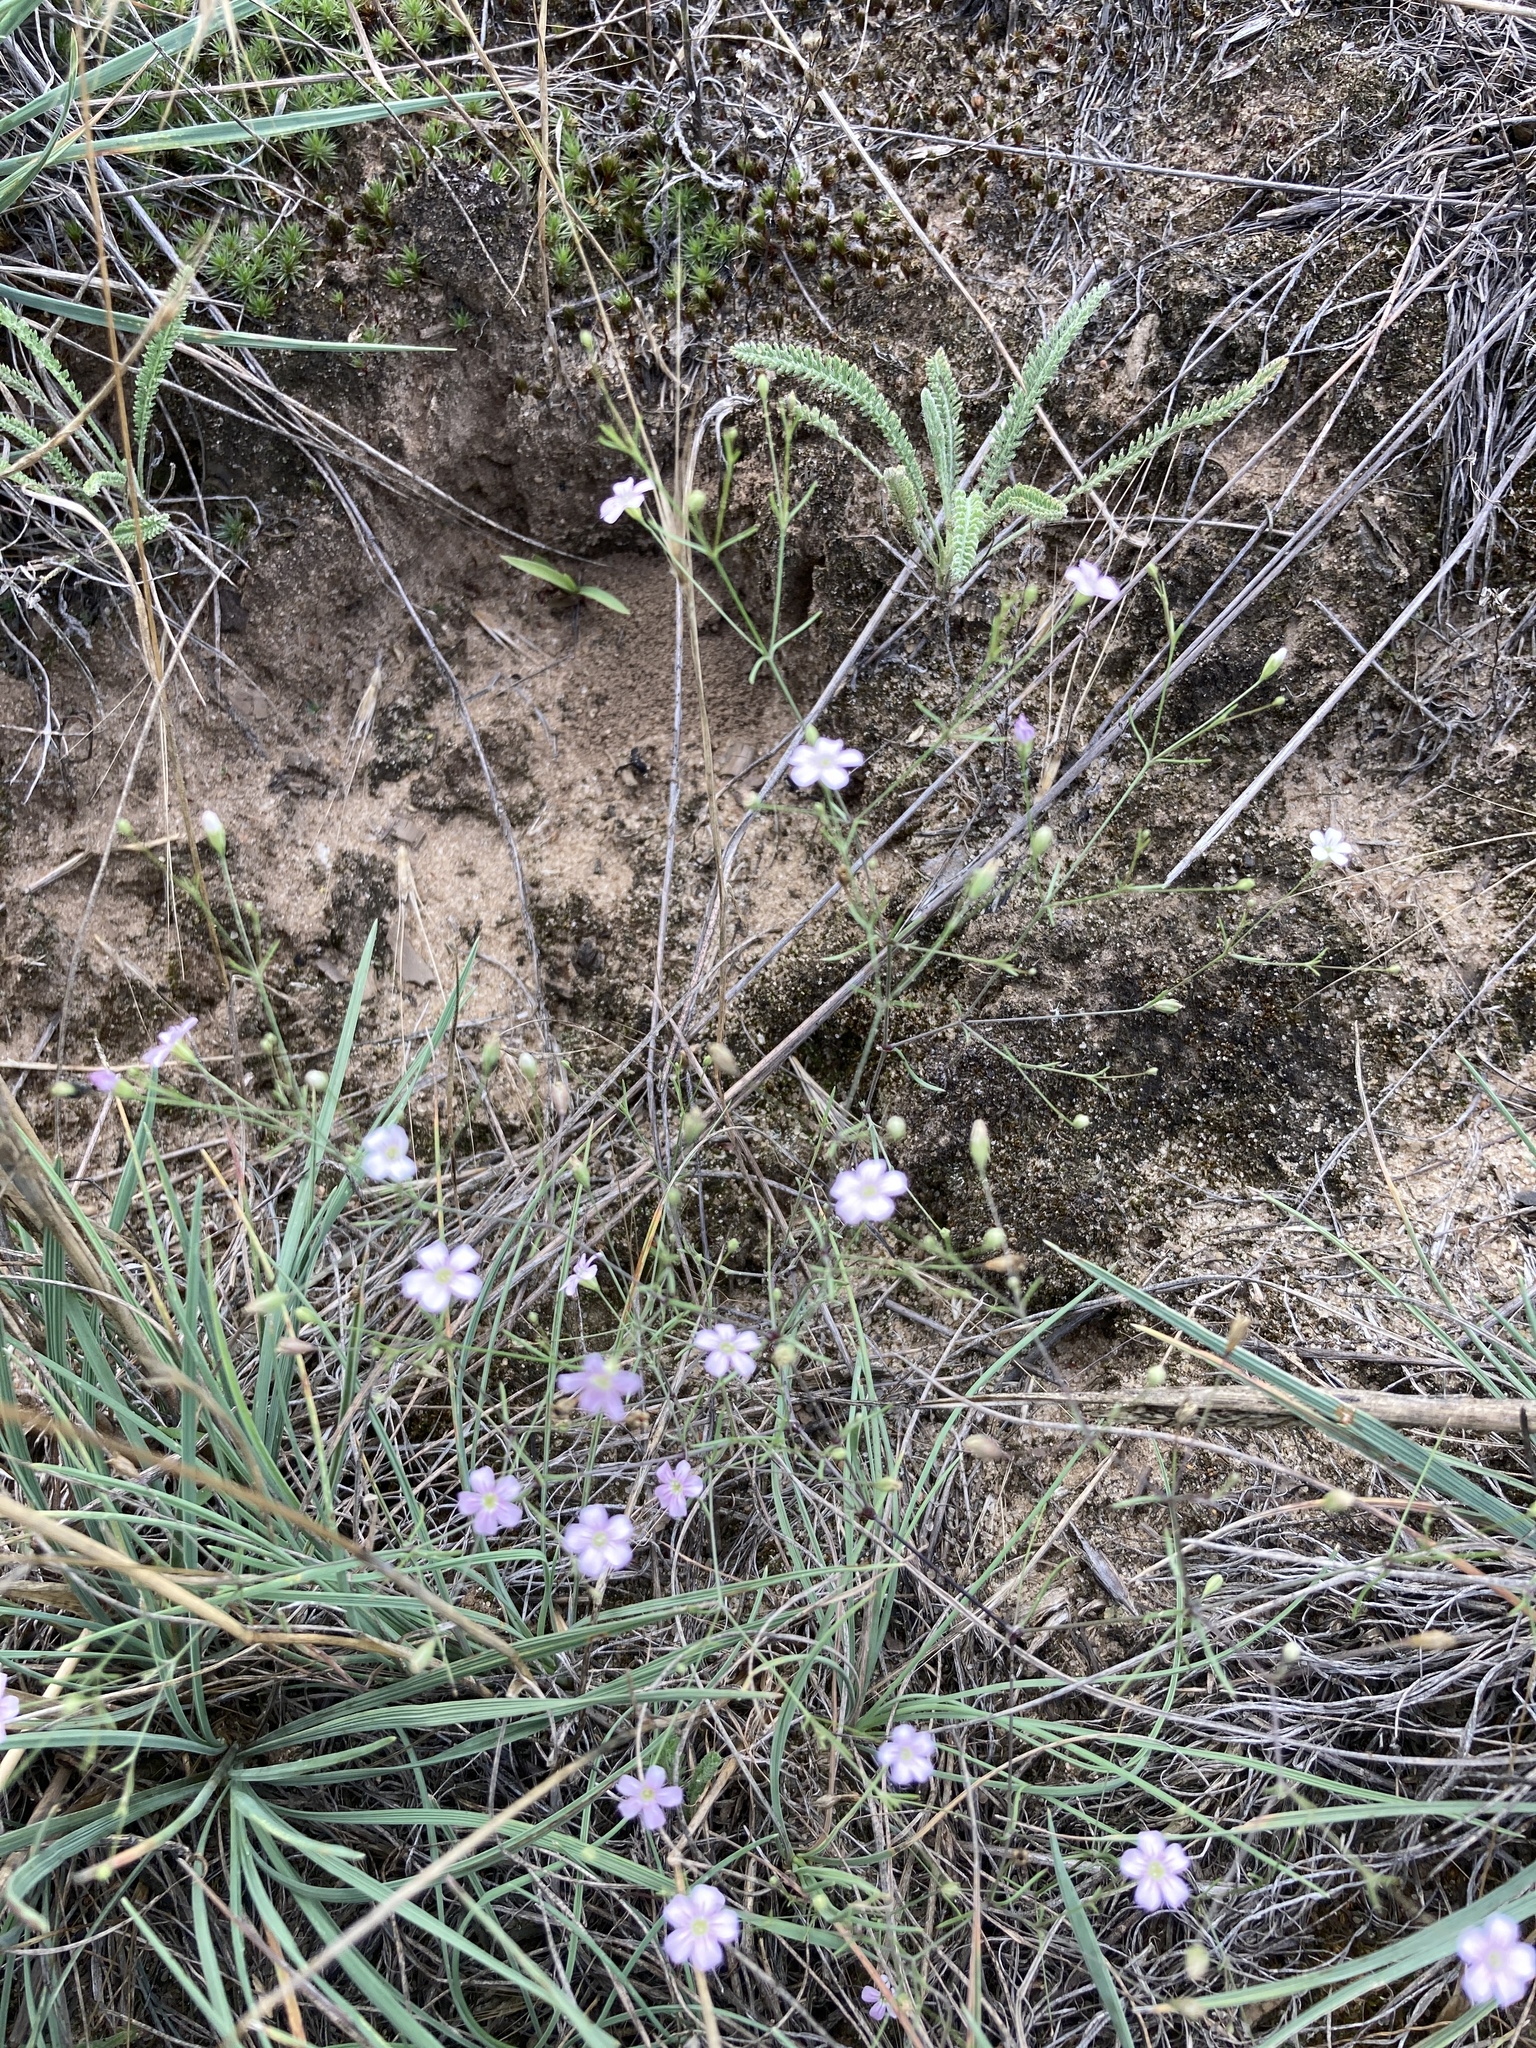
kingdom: Plantae
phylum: Tracheophyta
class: Magnoliopsida
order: Caryophyllales
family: Caryophyllaceae
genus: Psammophiliella
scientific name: Psammophiliella muralis
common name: Cushion baby's-breath
